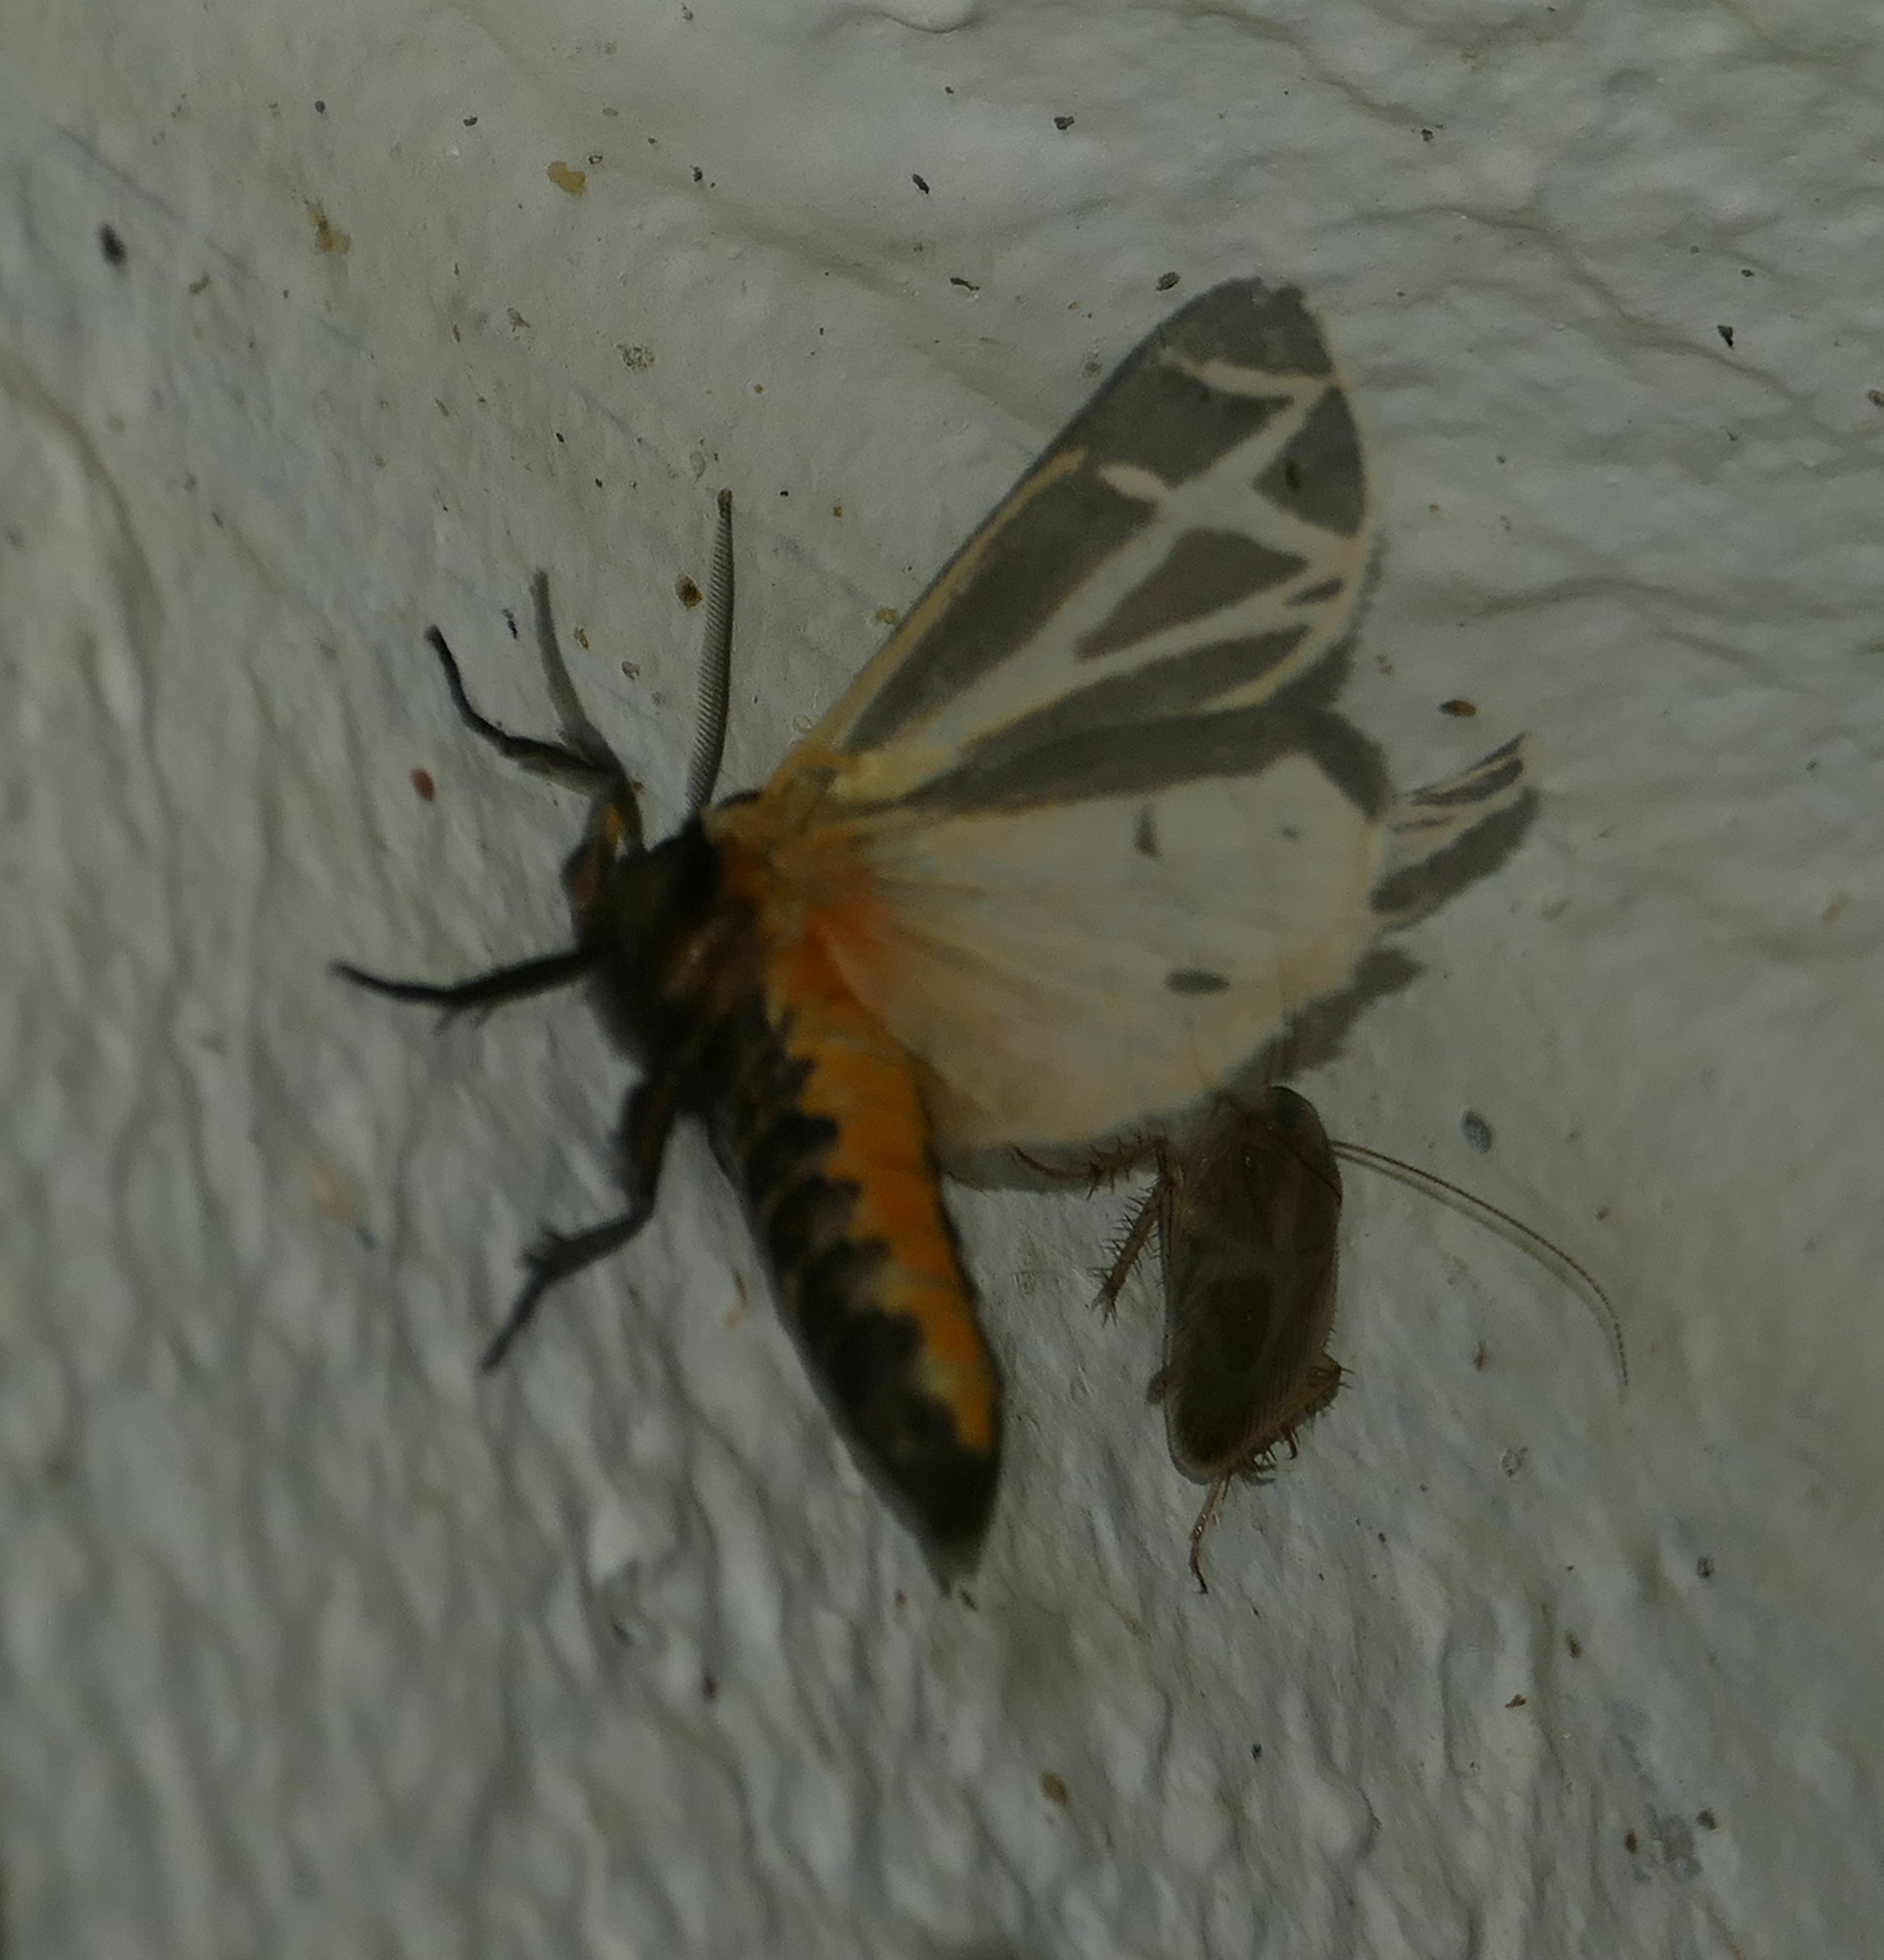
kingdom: Animalia
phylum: Arthropoda
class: Insecta
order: Lepidoptera
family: Erebidae
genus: Apantesis
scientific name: Apantesis phalerata
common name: Harnessed tiger moth
